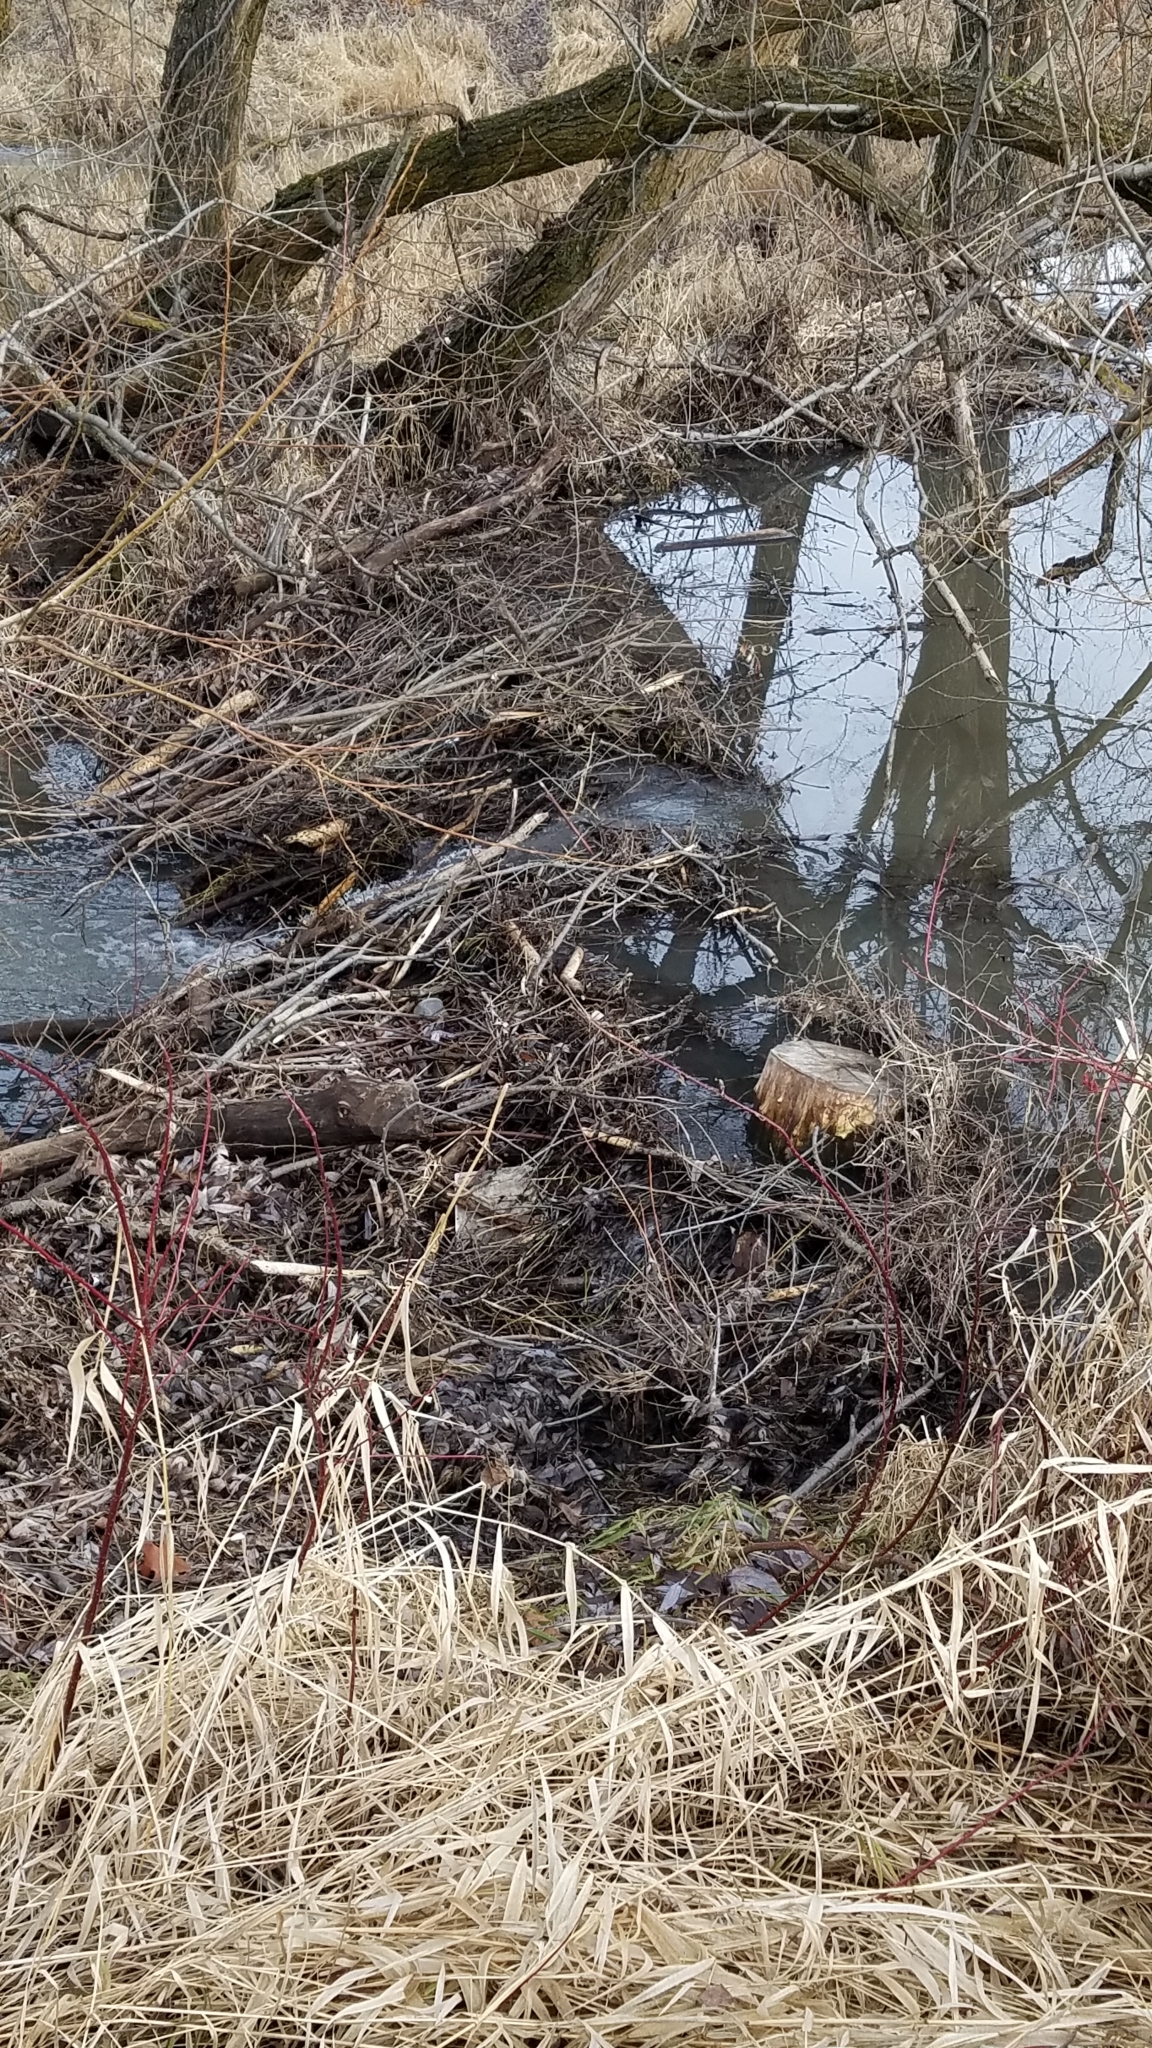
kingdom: Animalia
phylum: Chordata
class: Mammalia
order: Rodentia
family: Castoridae
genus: Castor
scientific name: Castor canadensis
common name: American beaver
